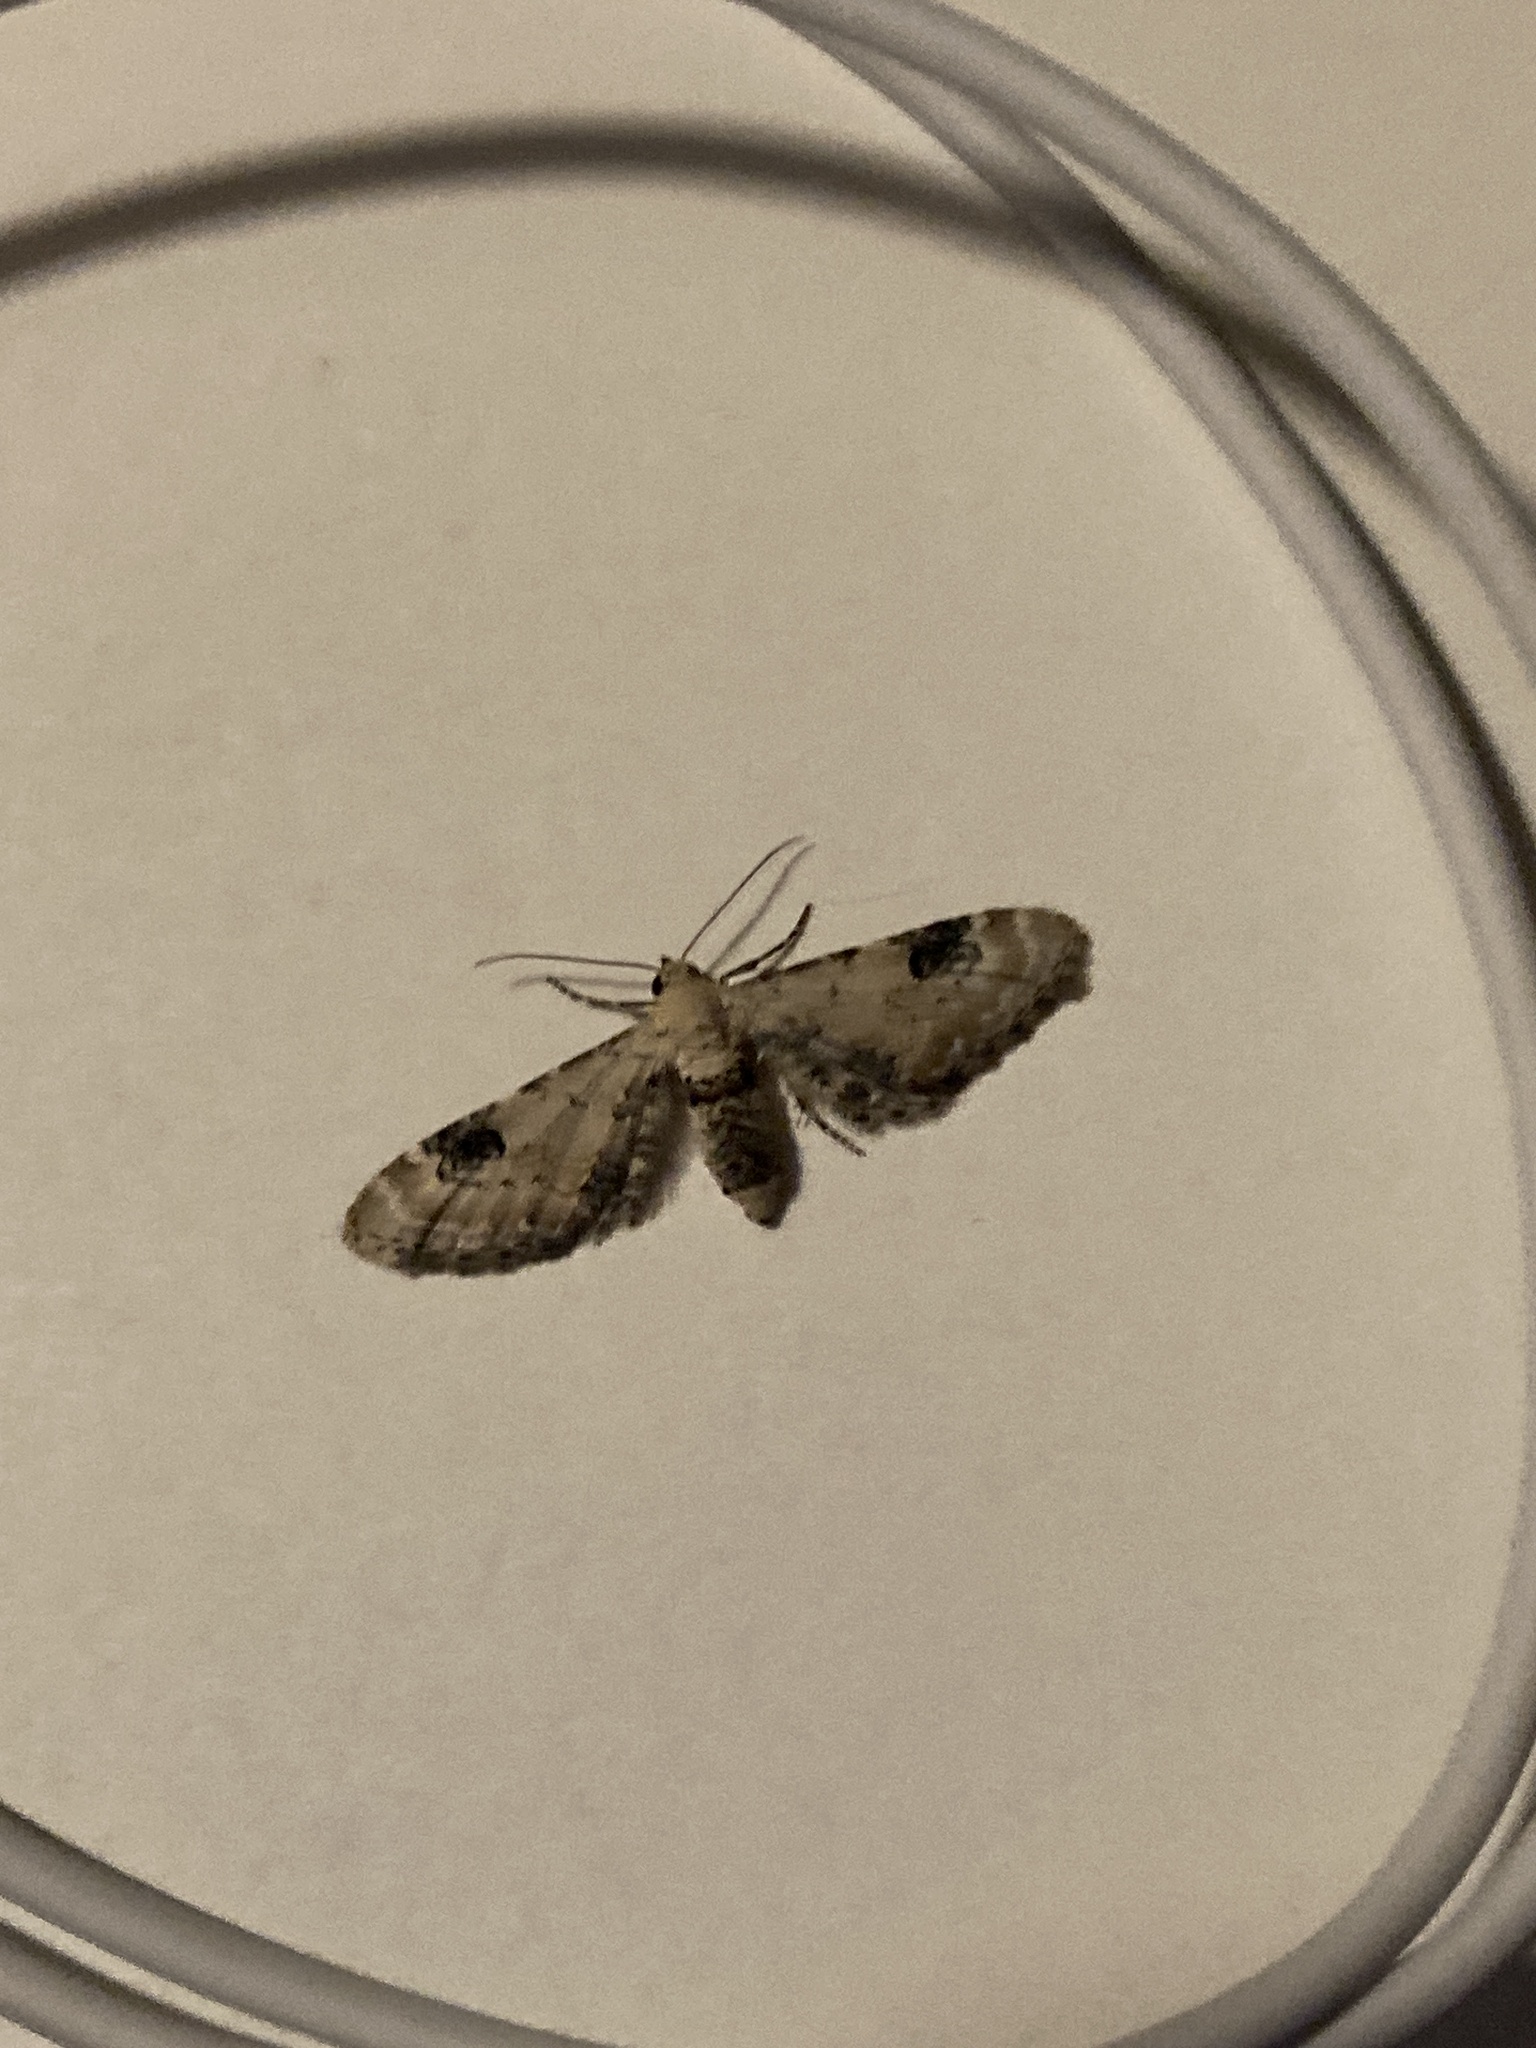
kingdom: Animalia
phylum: Arthropoda
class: Insecta
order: Lepidoptera
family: Geometridae
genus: Eupithecia
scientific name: Eupithecia centaureata
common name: Lime-speck pug
